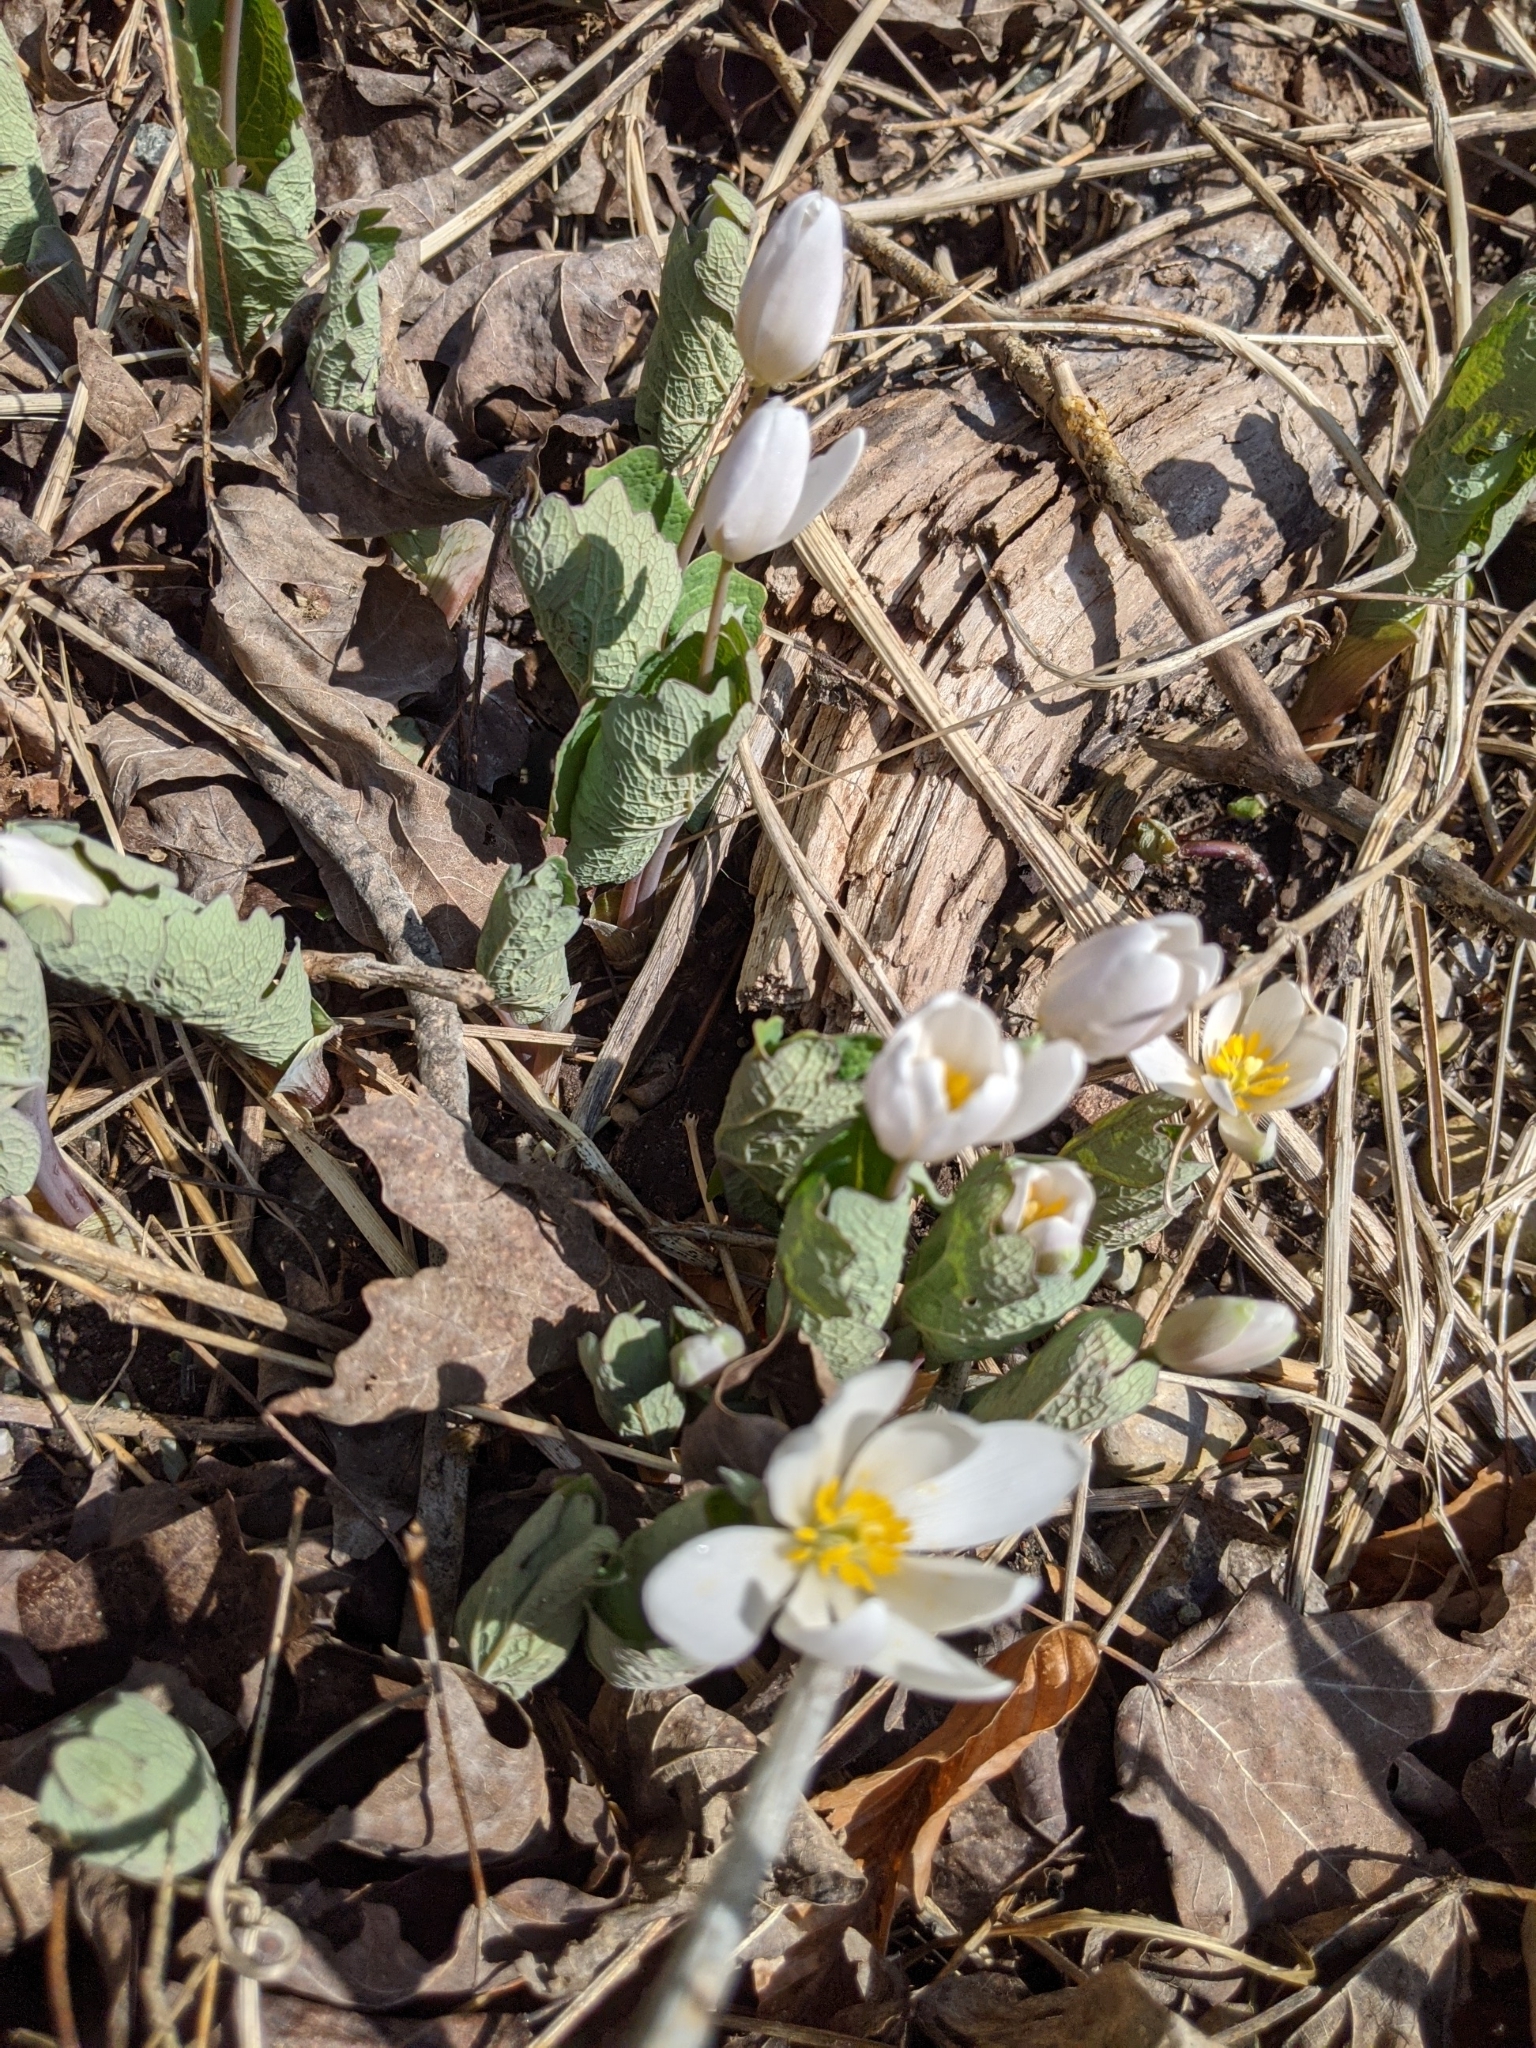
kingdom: Plantae
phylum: Tracheophyta
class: Magnoliopsida
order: Ranunculales
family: Papaveraceae
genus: Sanguinaria
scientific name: Sanguinaria canadensis
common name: Bloodroot
